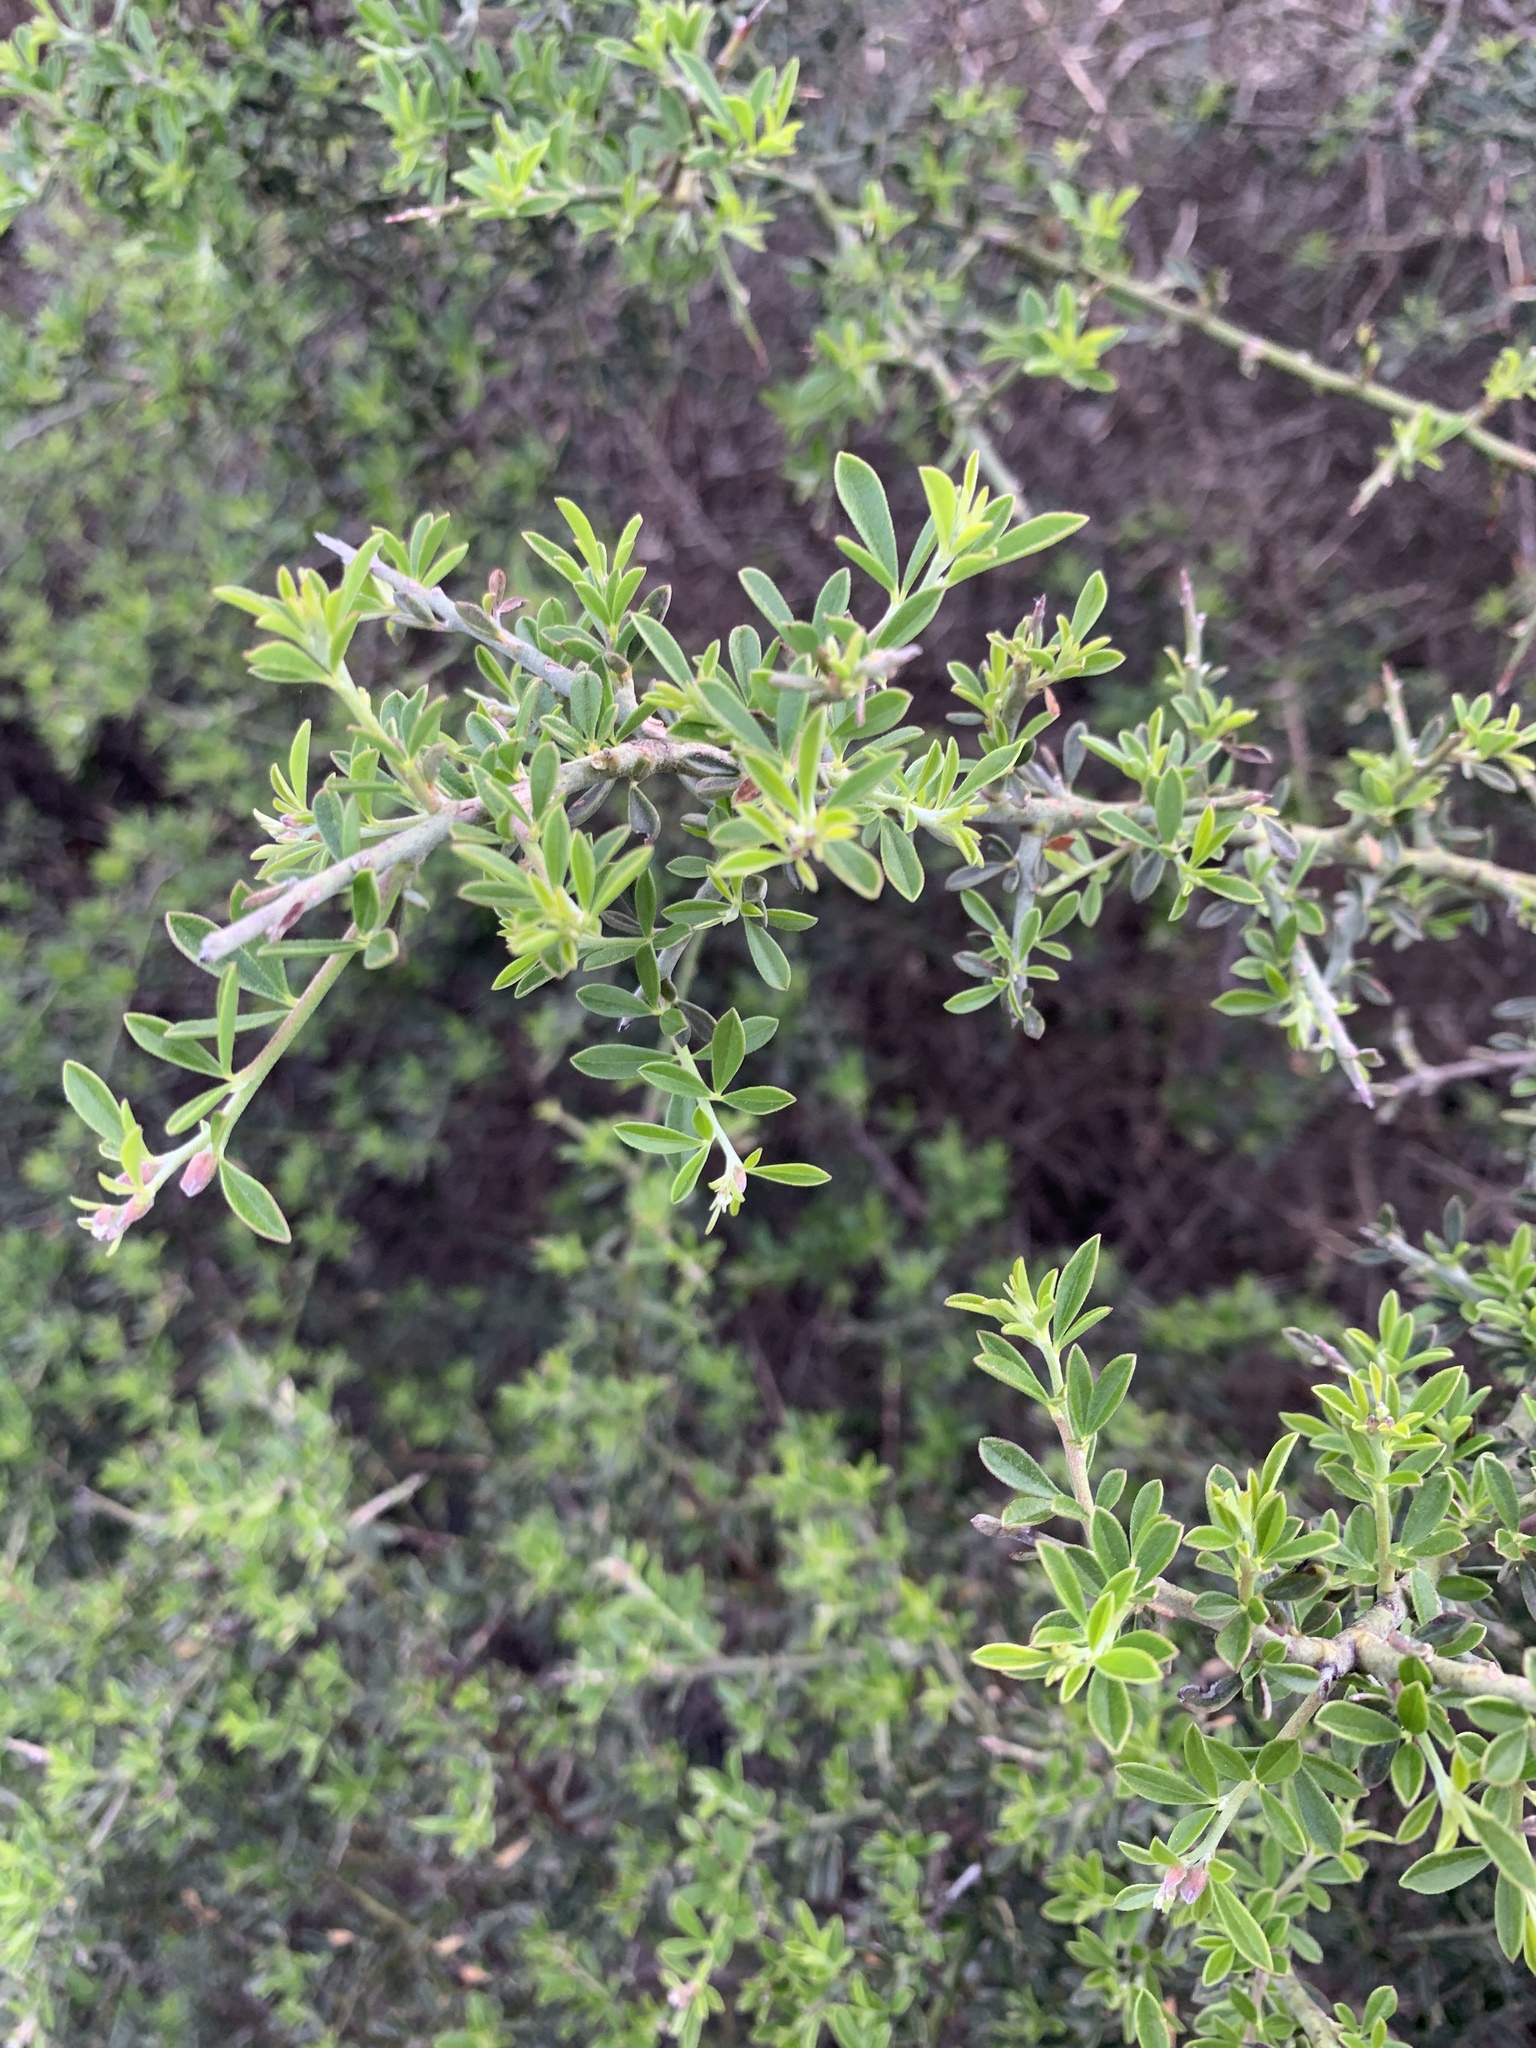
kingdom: Plantae
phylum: Tracheophyta
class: Magnoliopsida
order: Fabales
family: Fabaceae
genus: Pickeringia
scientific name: Pickeringia montana
